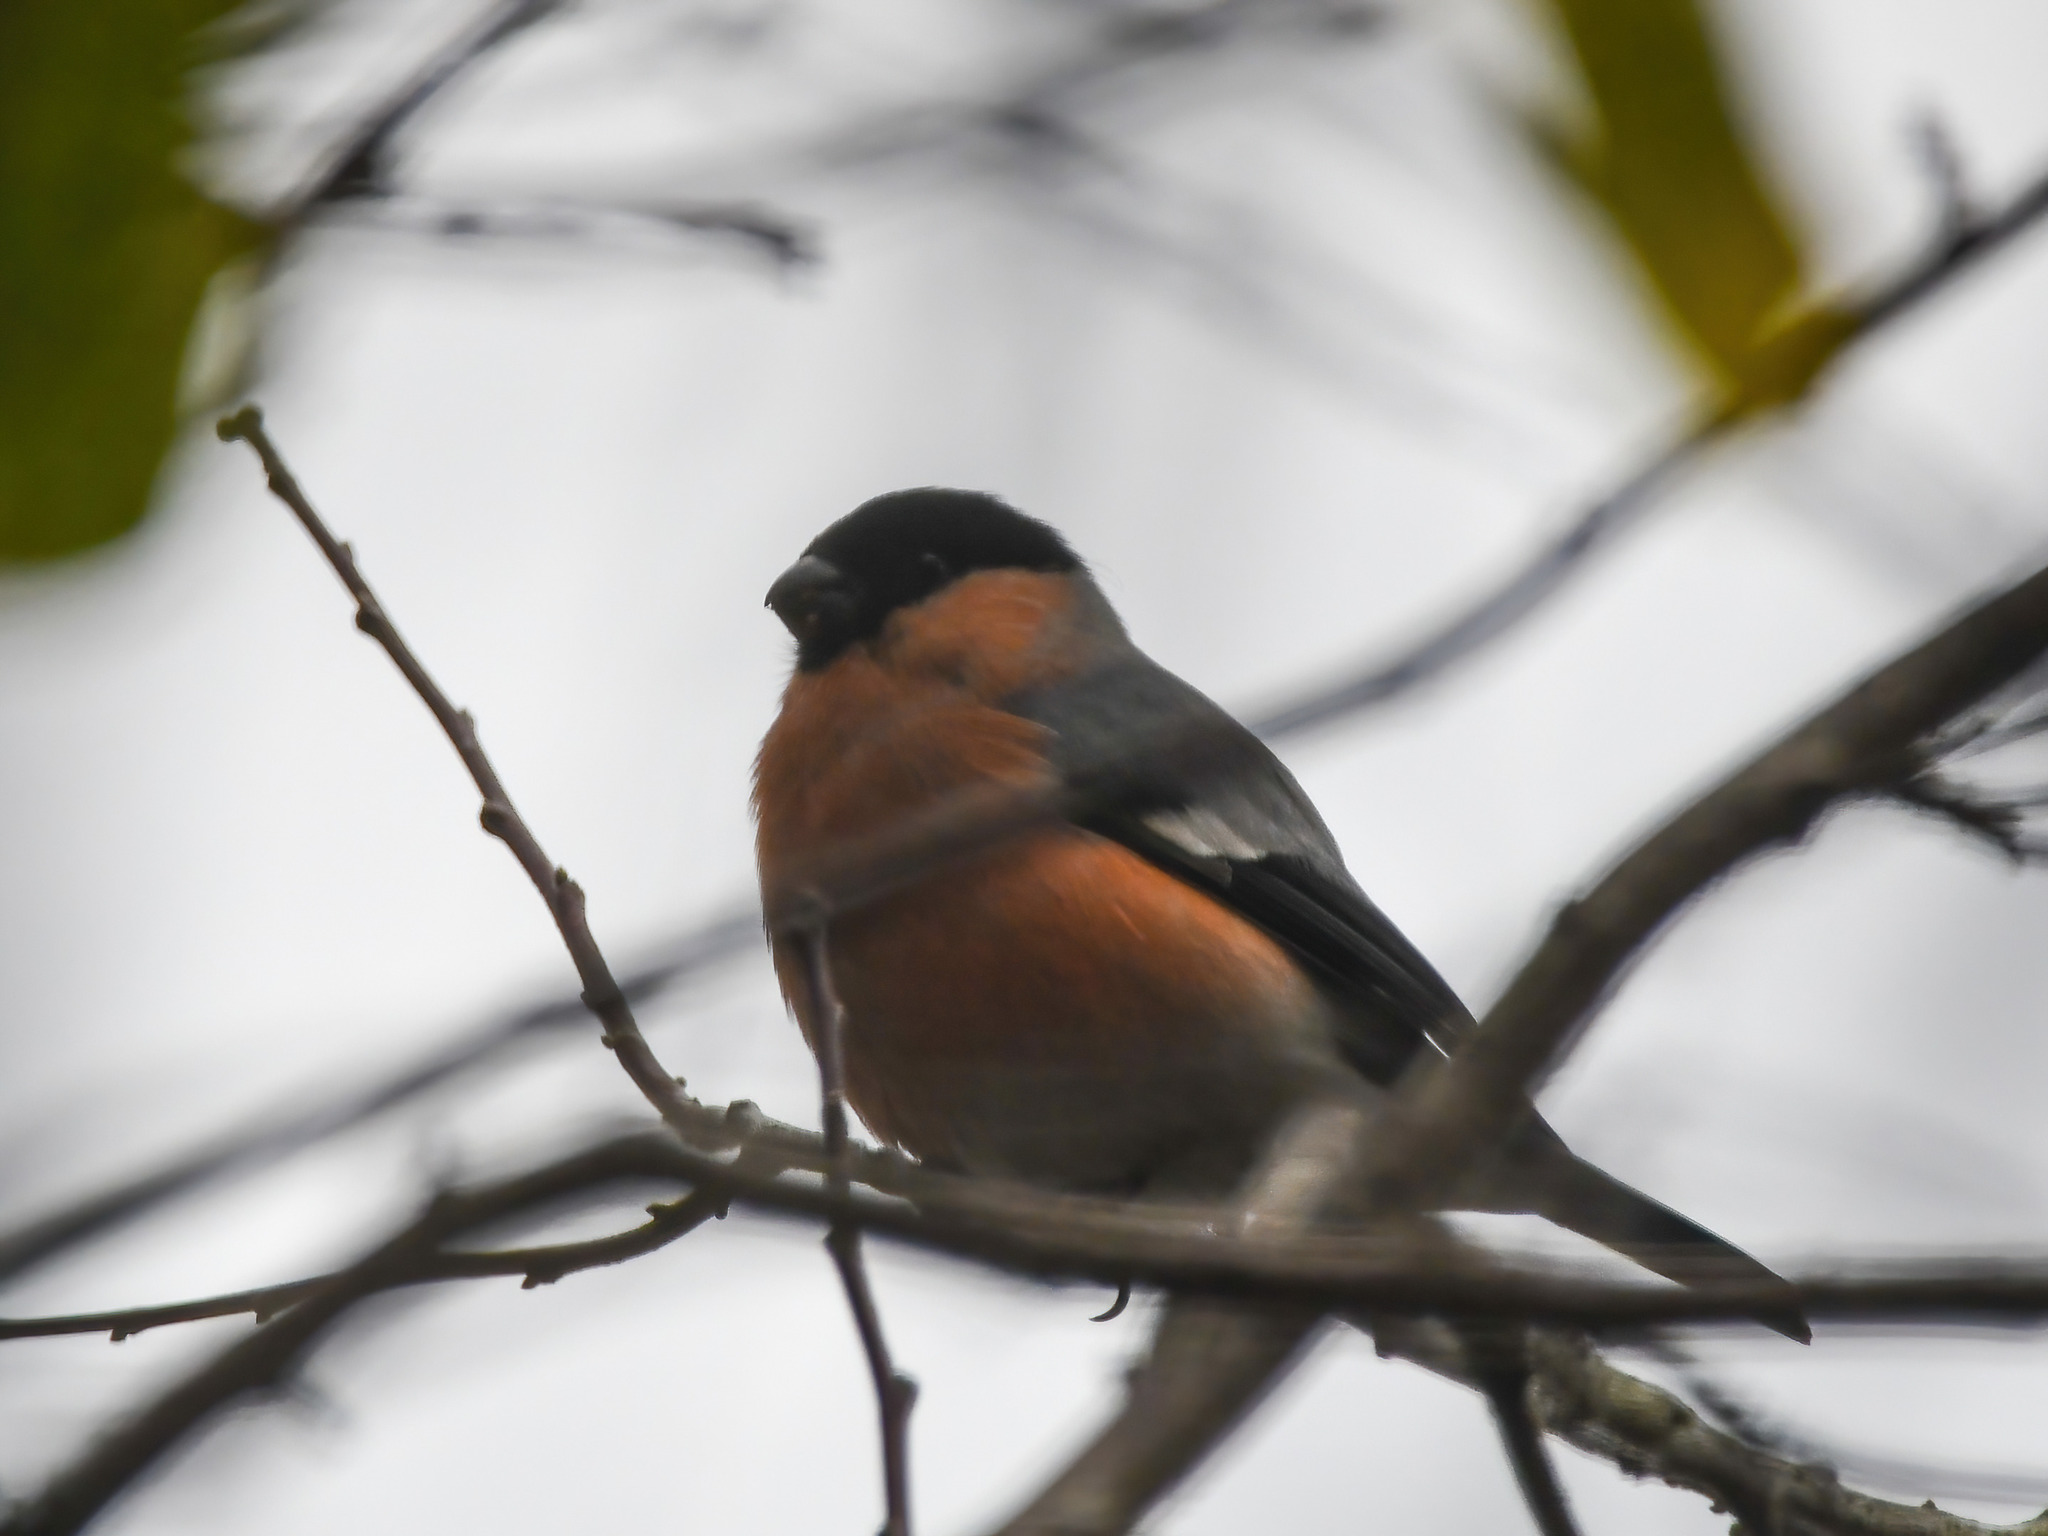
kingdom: Animalia
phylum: Chordata
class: Aves
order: Passeriformes
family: Fringillidae
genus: Pyrrhula
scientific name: Pyrrhula pyrrhula
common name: Eurasian bullfinch
